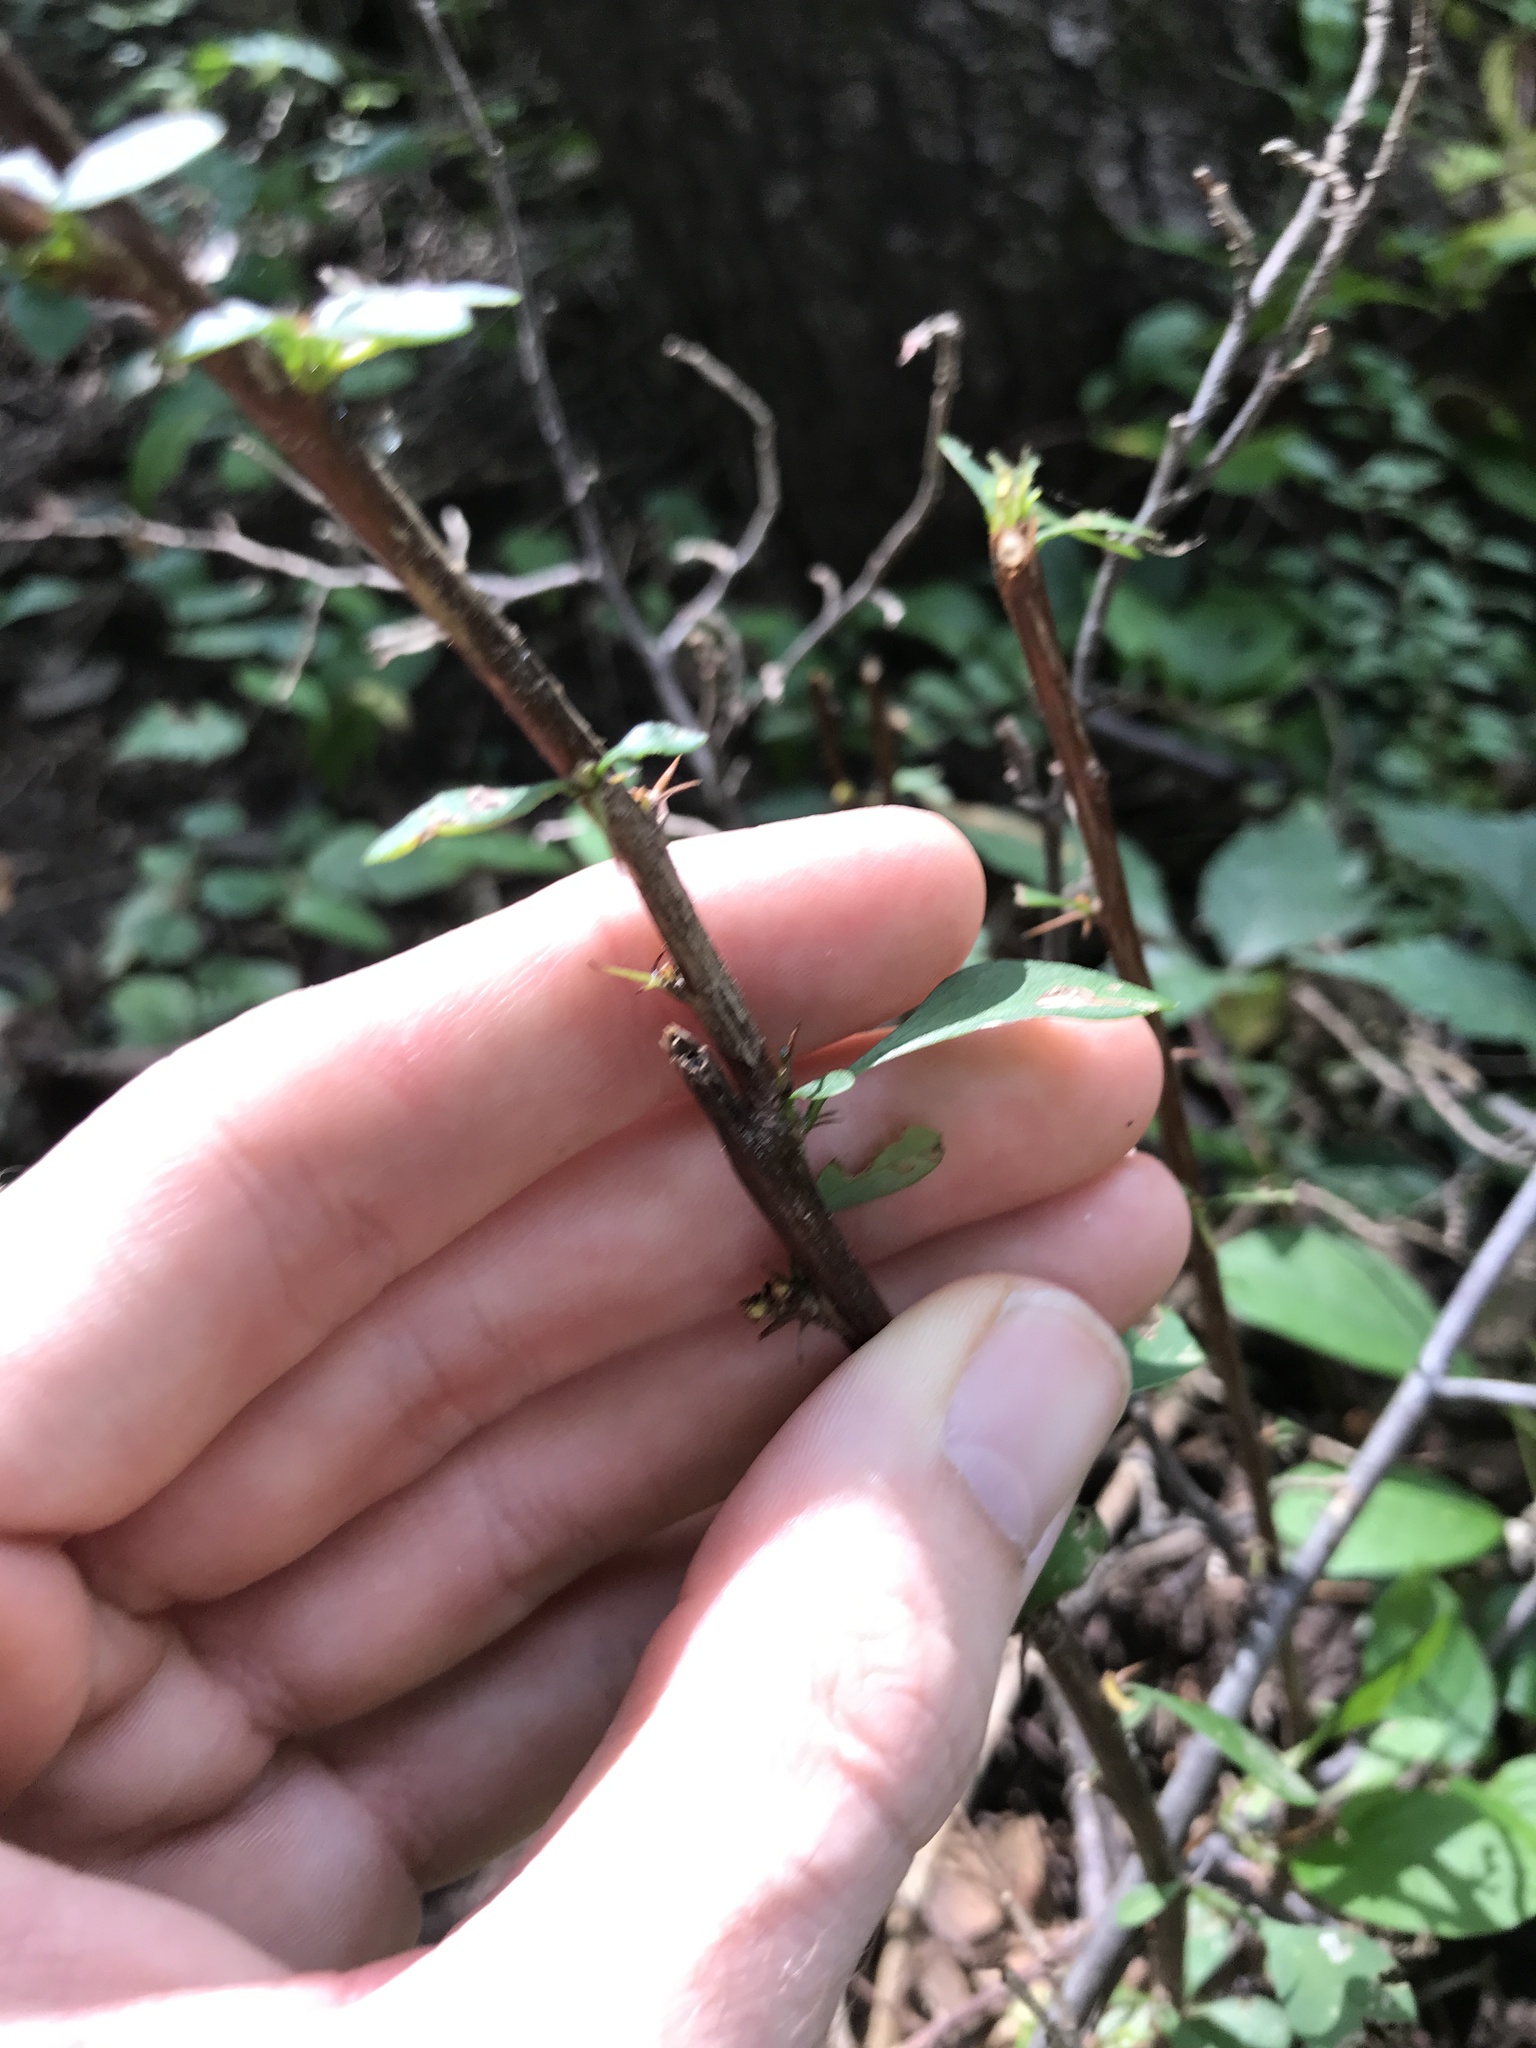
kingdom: Plantae
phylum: Tracheophyta
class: Magnoliopsida
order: Ranunculales
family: Berberidaceae
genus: Berberis
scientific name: Berberis thunbergii
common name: Japanese barberry
